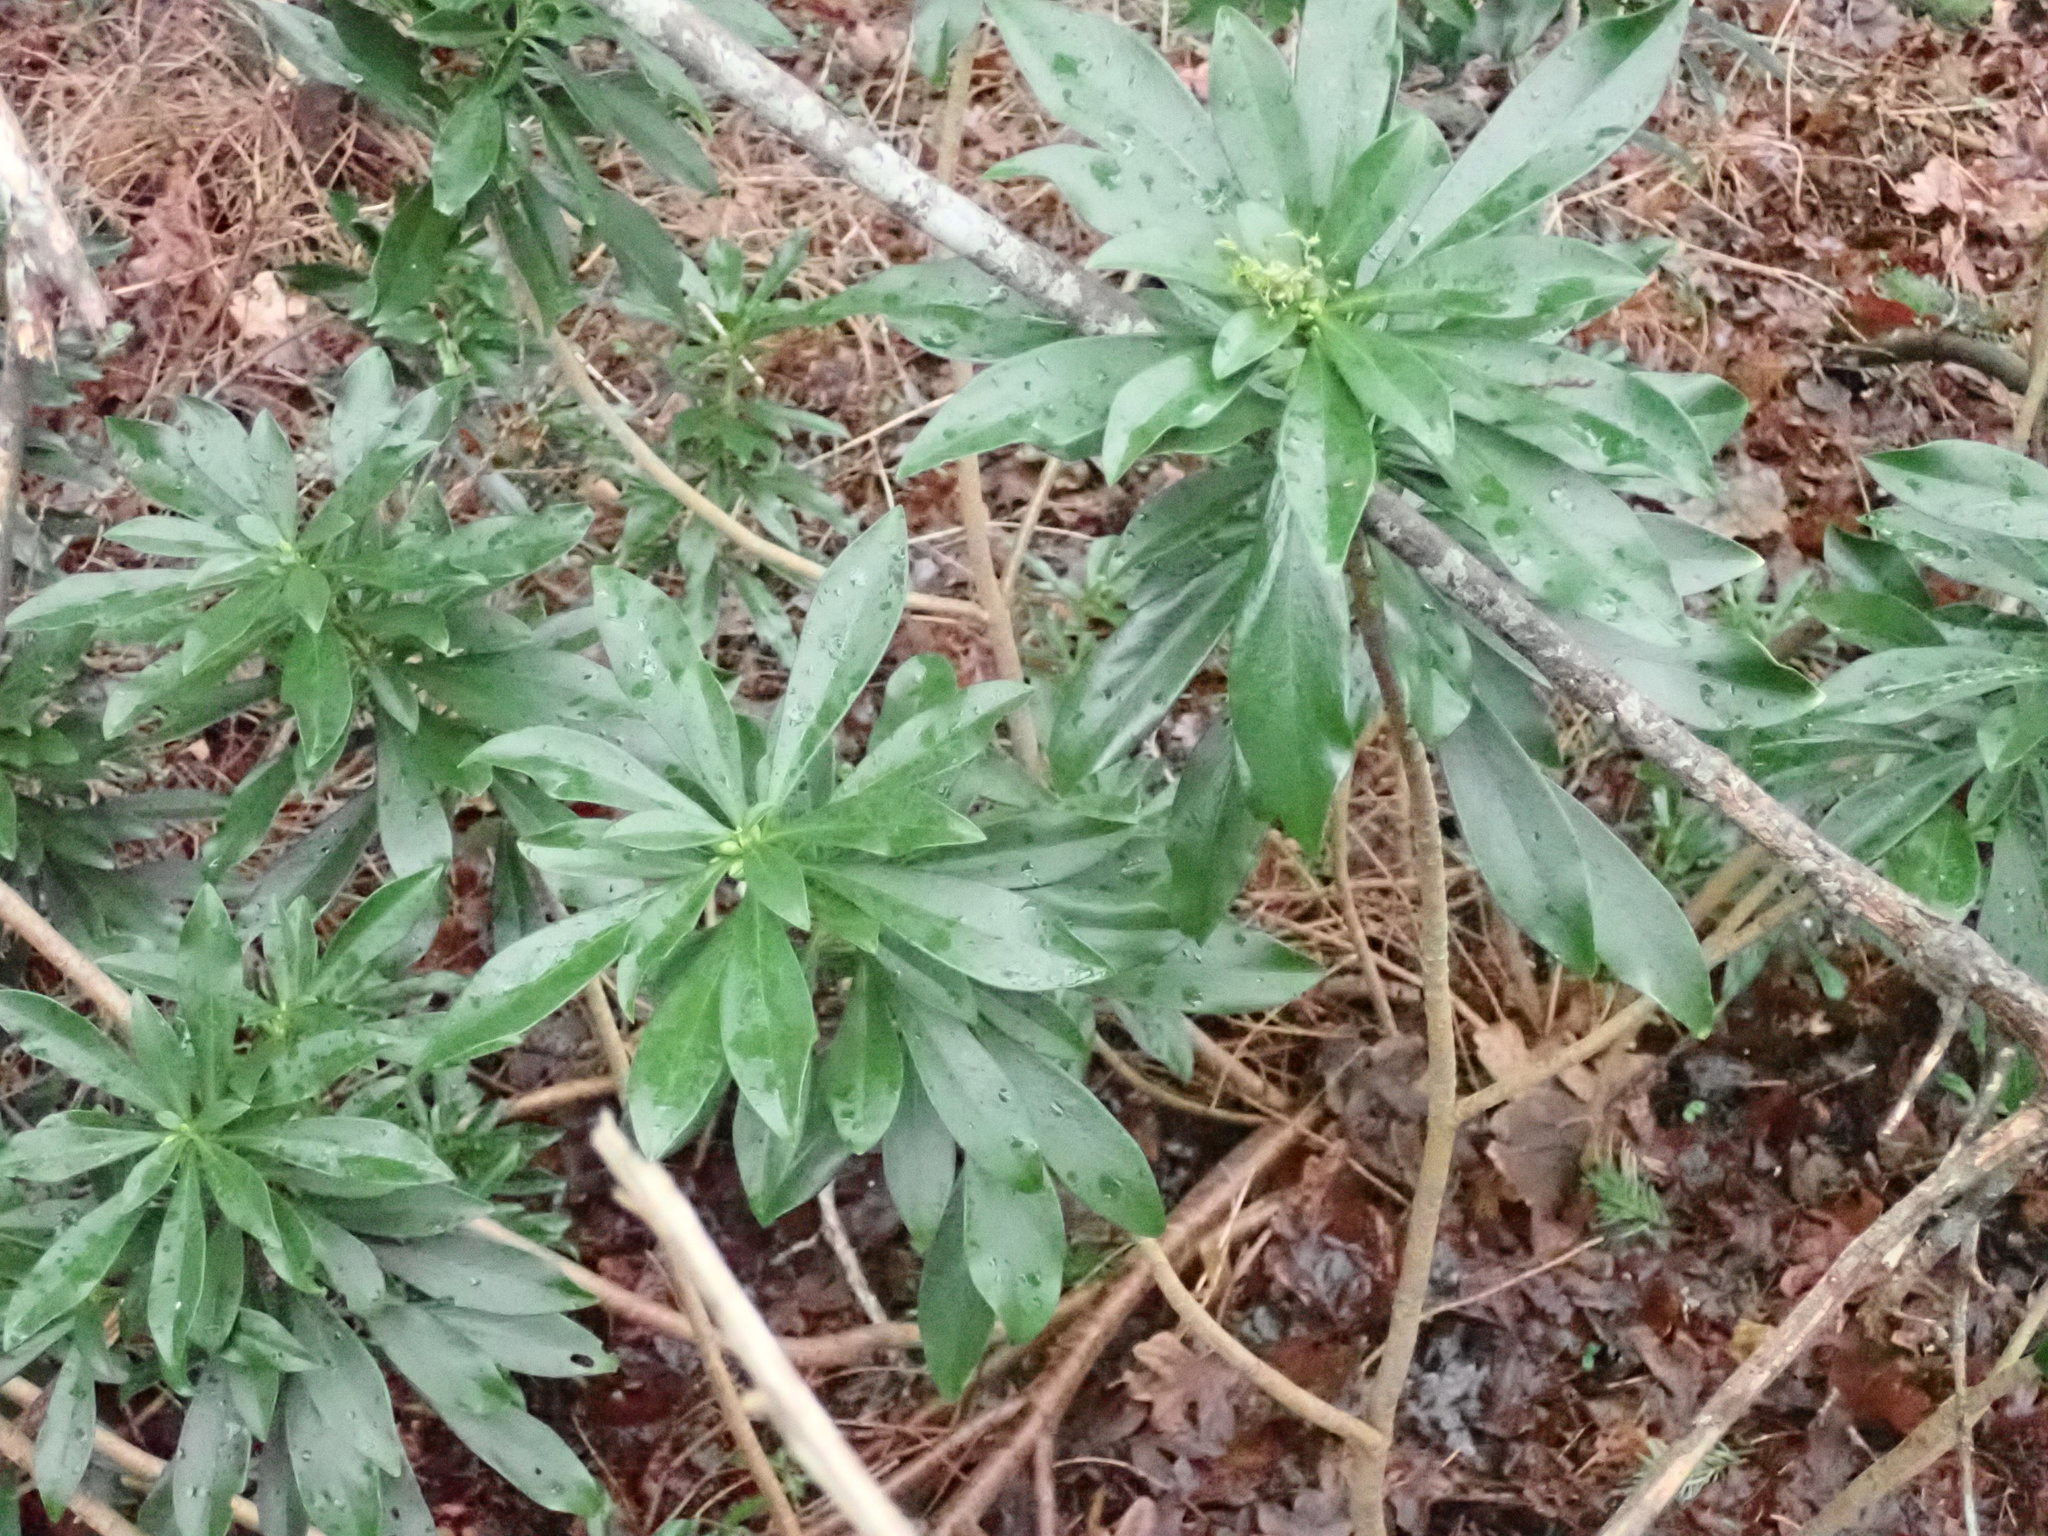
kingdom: Plantae
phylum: Tracheophyta
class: Magnoliopsida
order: Malvales
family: Thymelaeaceae
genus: Daphne
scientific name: Daphne laureola
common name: Spurge-laurel
